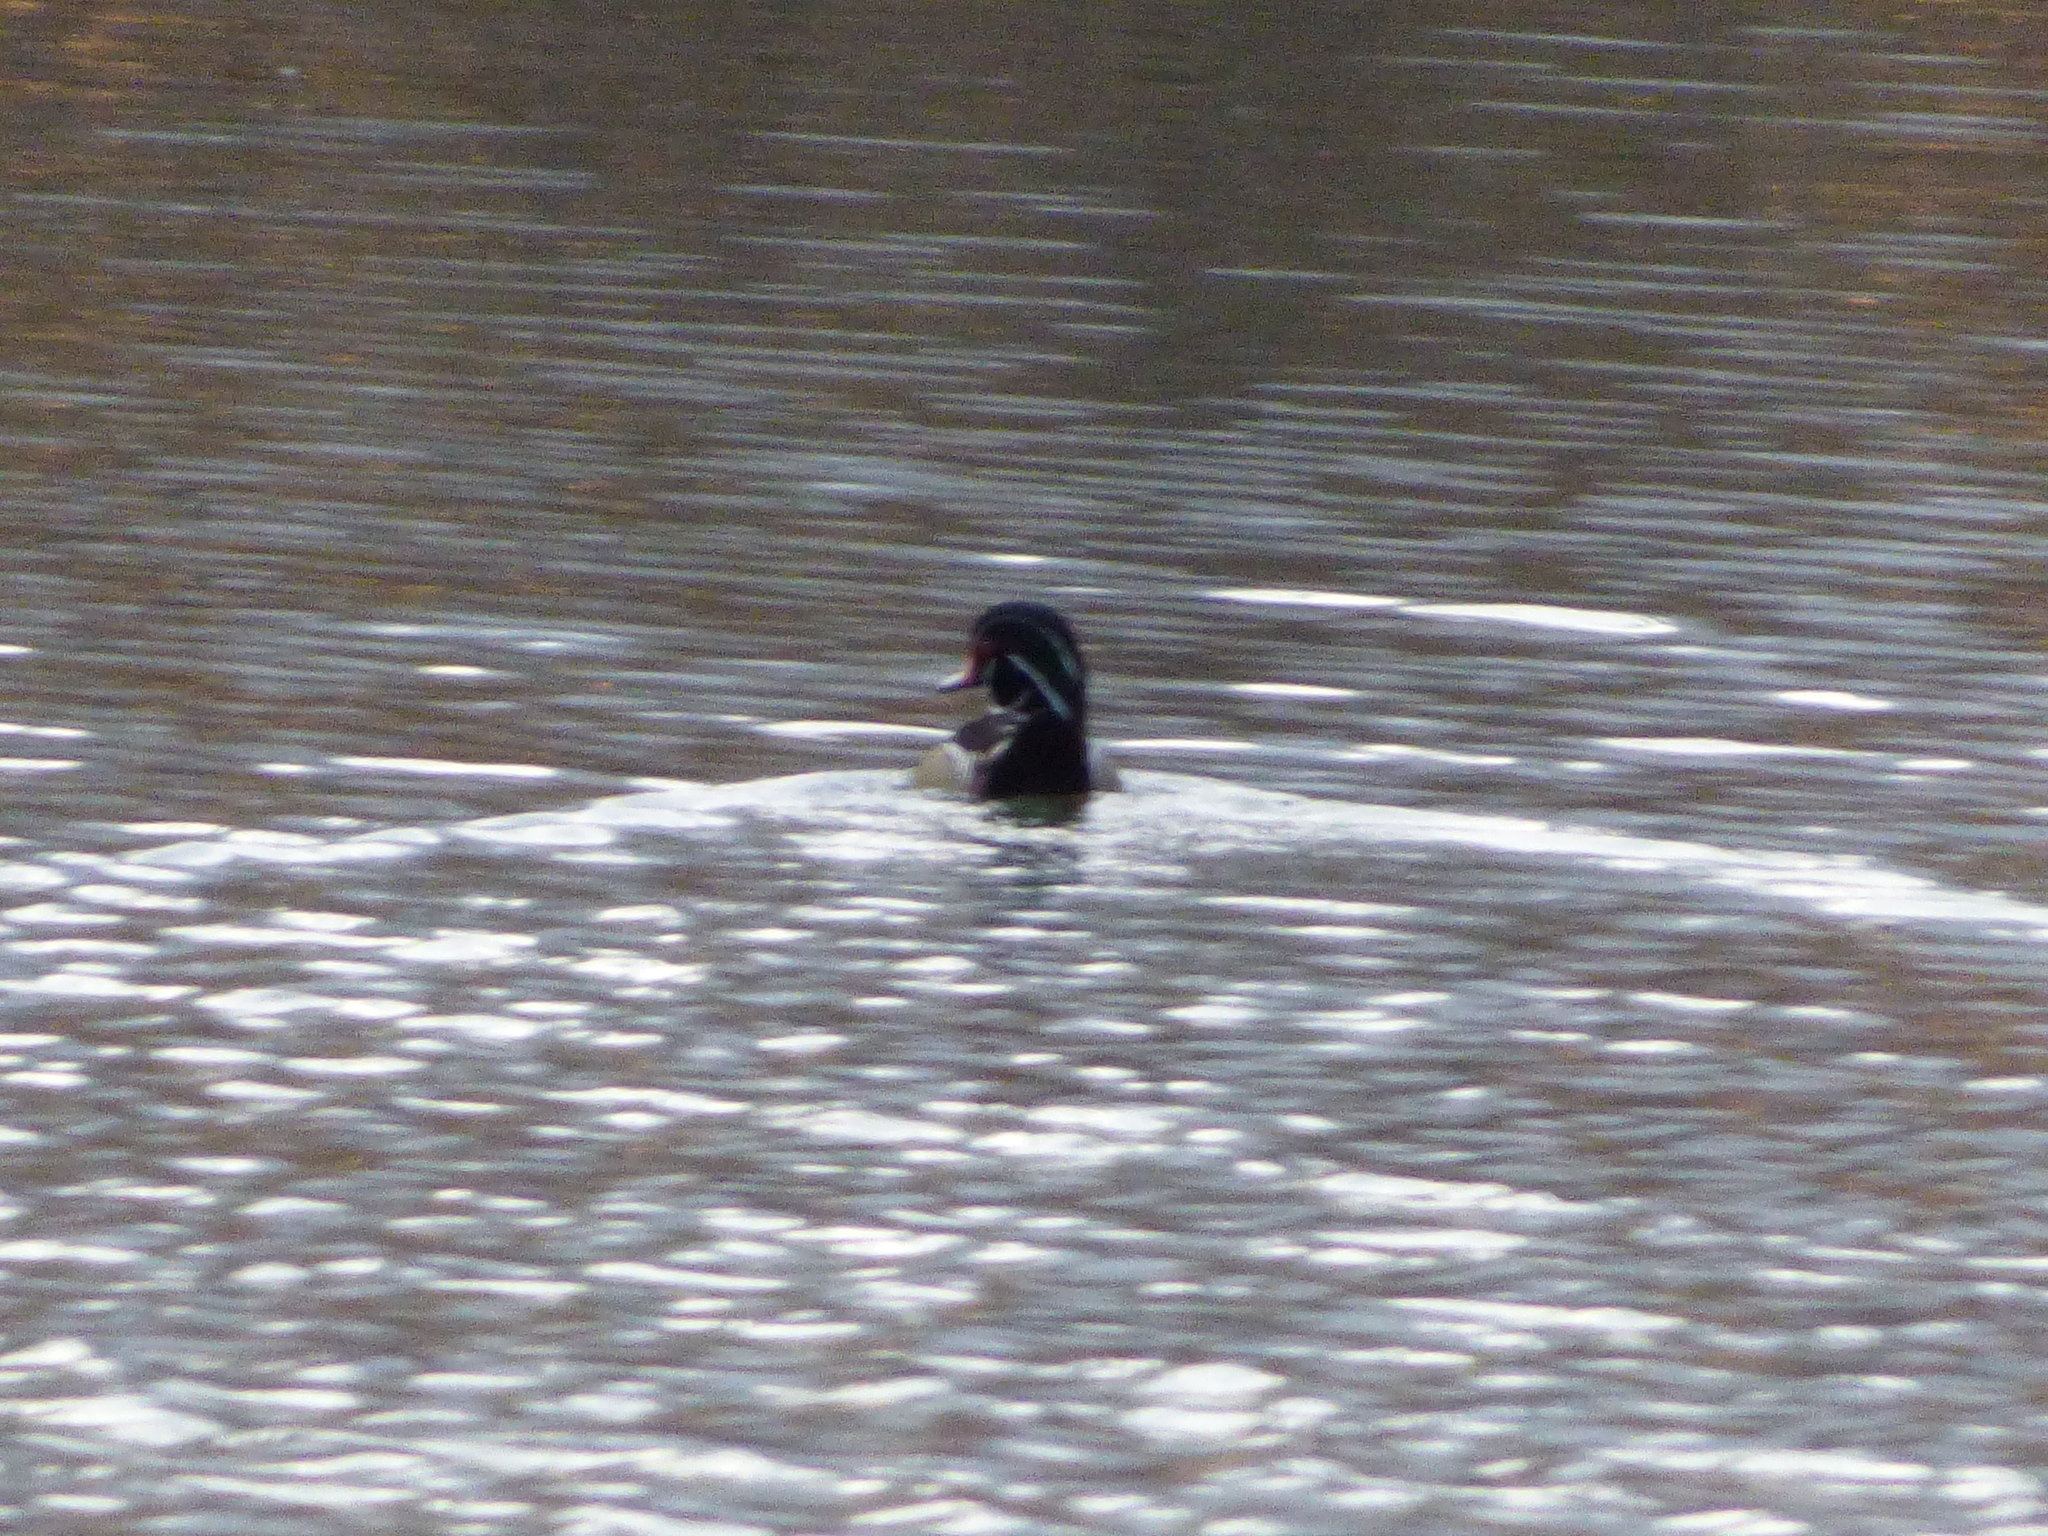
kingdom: Animalia
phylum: Chordata
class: Aves
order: Anseriformes
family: Anatidae
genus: Aix
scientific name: Aix sponsa
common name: Wood duck
